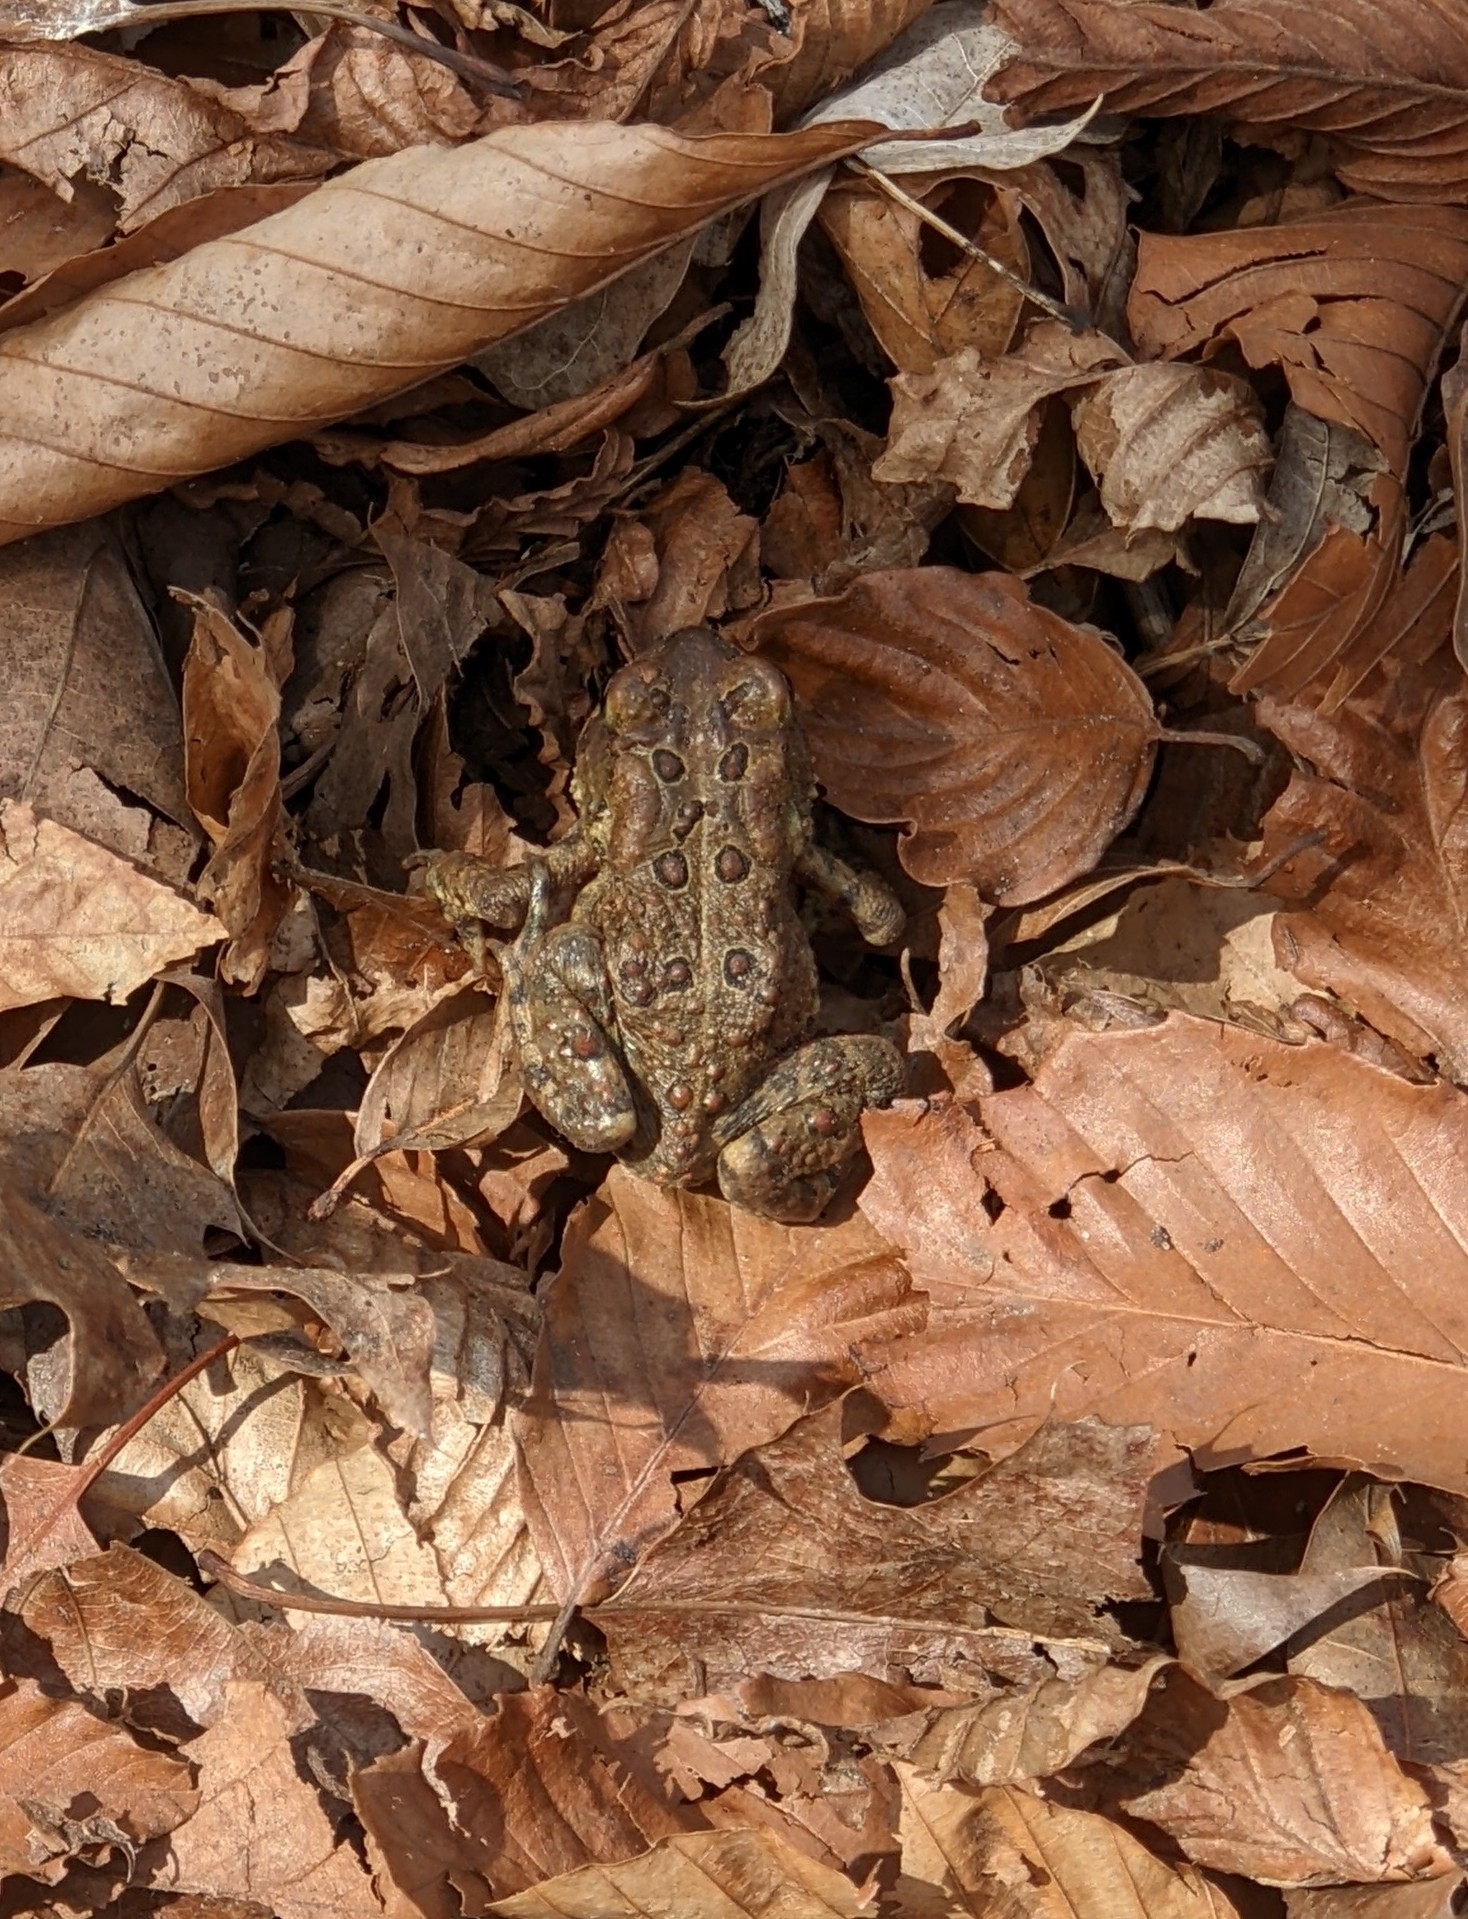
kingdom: Animalia
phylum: Chordata
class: Amphibia
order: Anura
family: Bufonidae
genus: Anaxyrus
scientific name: Anaxyrus americanus
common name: American toad
